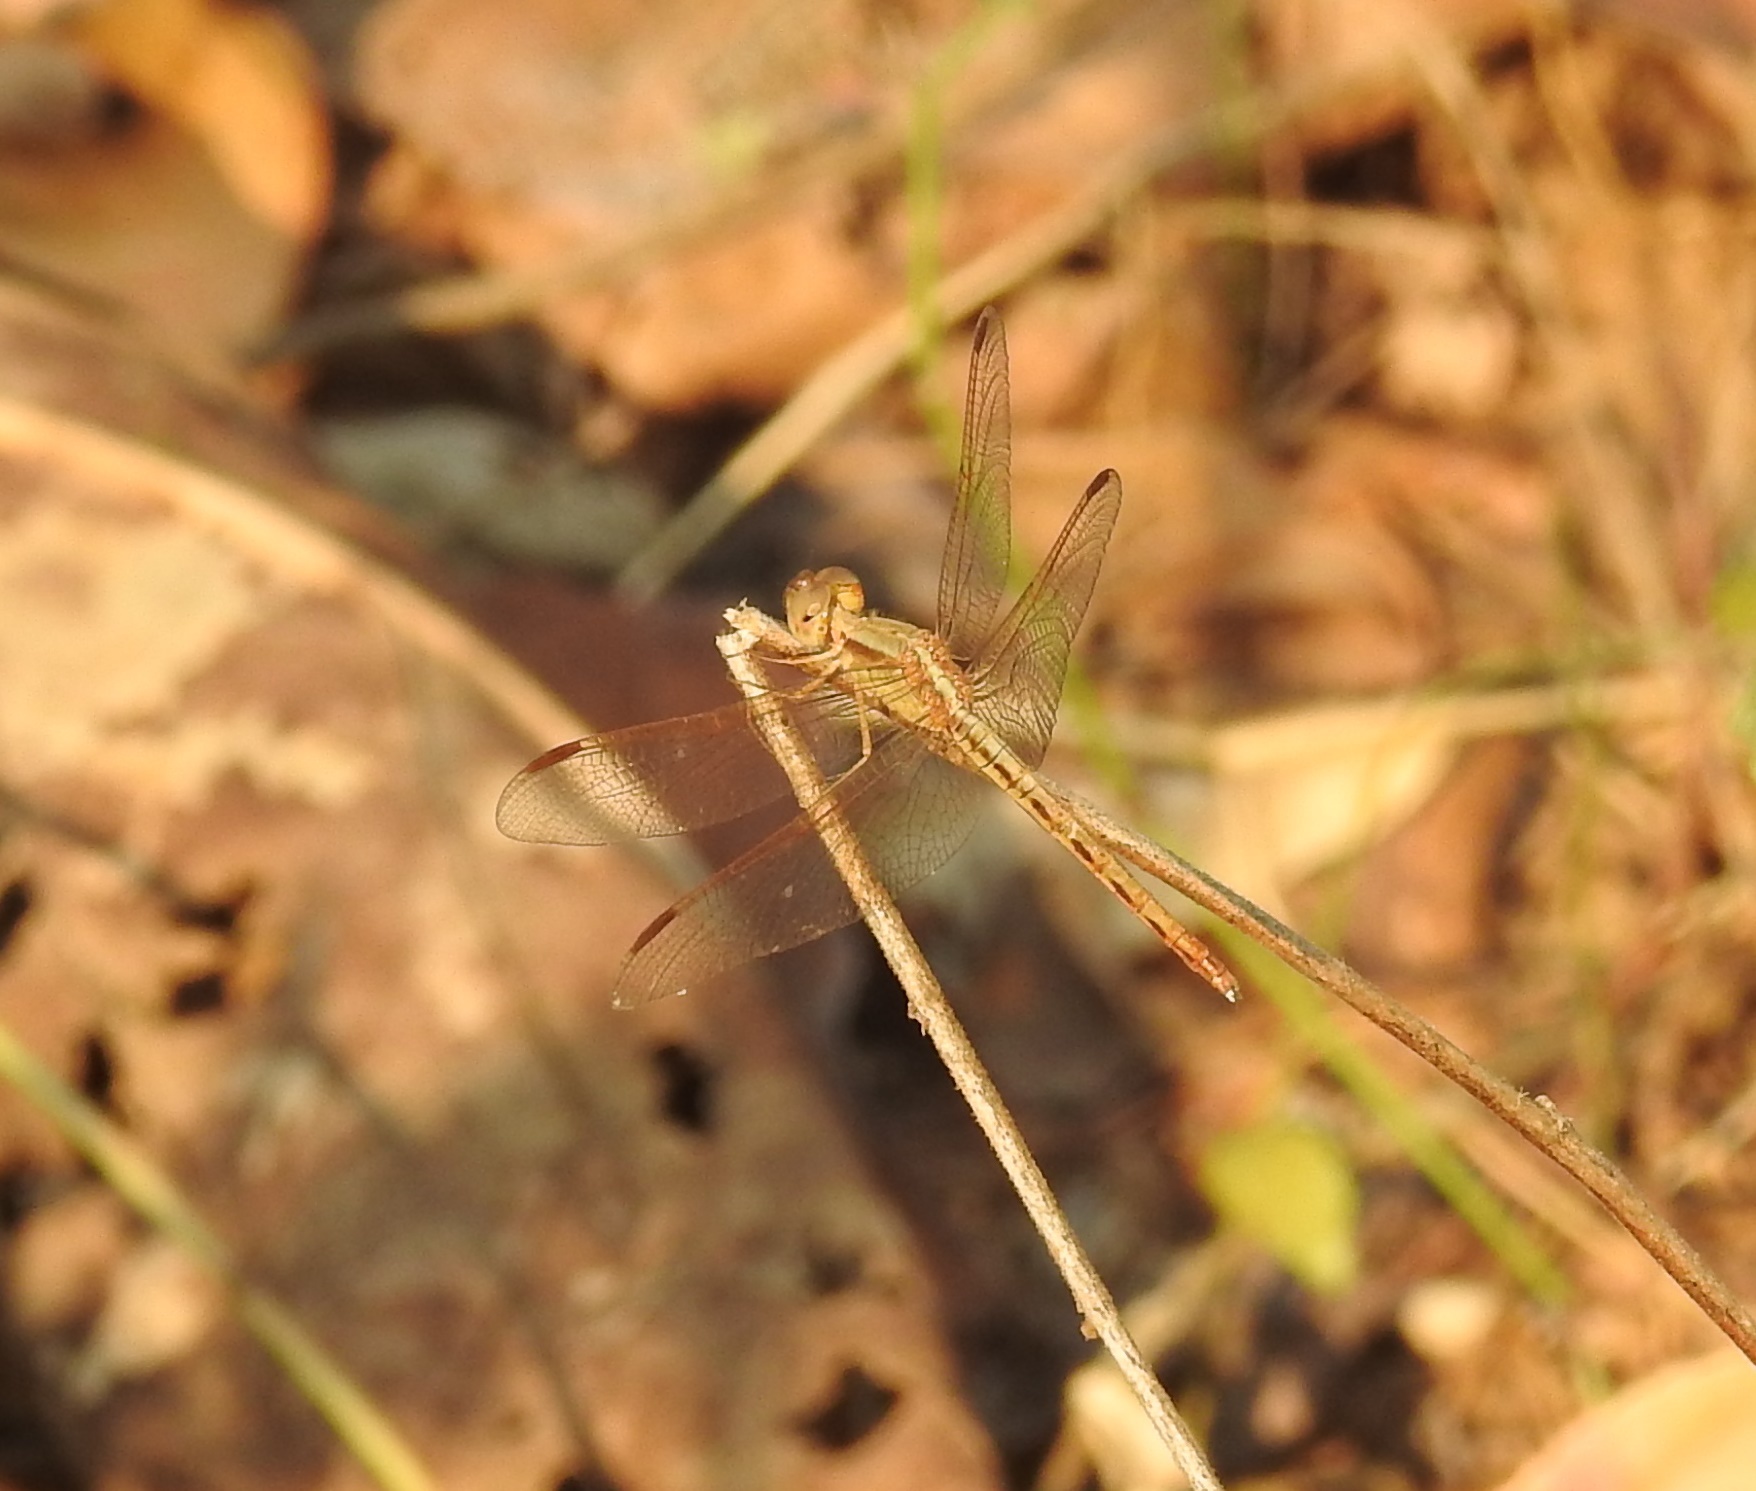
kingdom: Animalia
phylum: Arthropoda
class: Insecta
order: Odonata
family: Libellulidae
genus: Neurothemis
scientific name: Neurothemis intermedia
